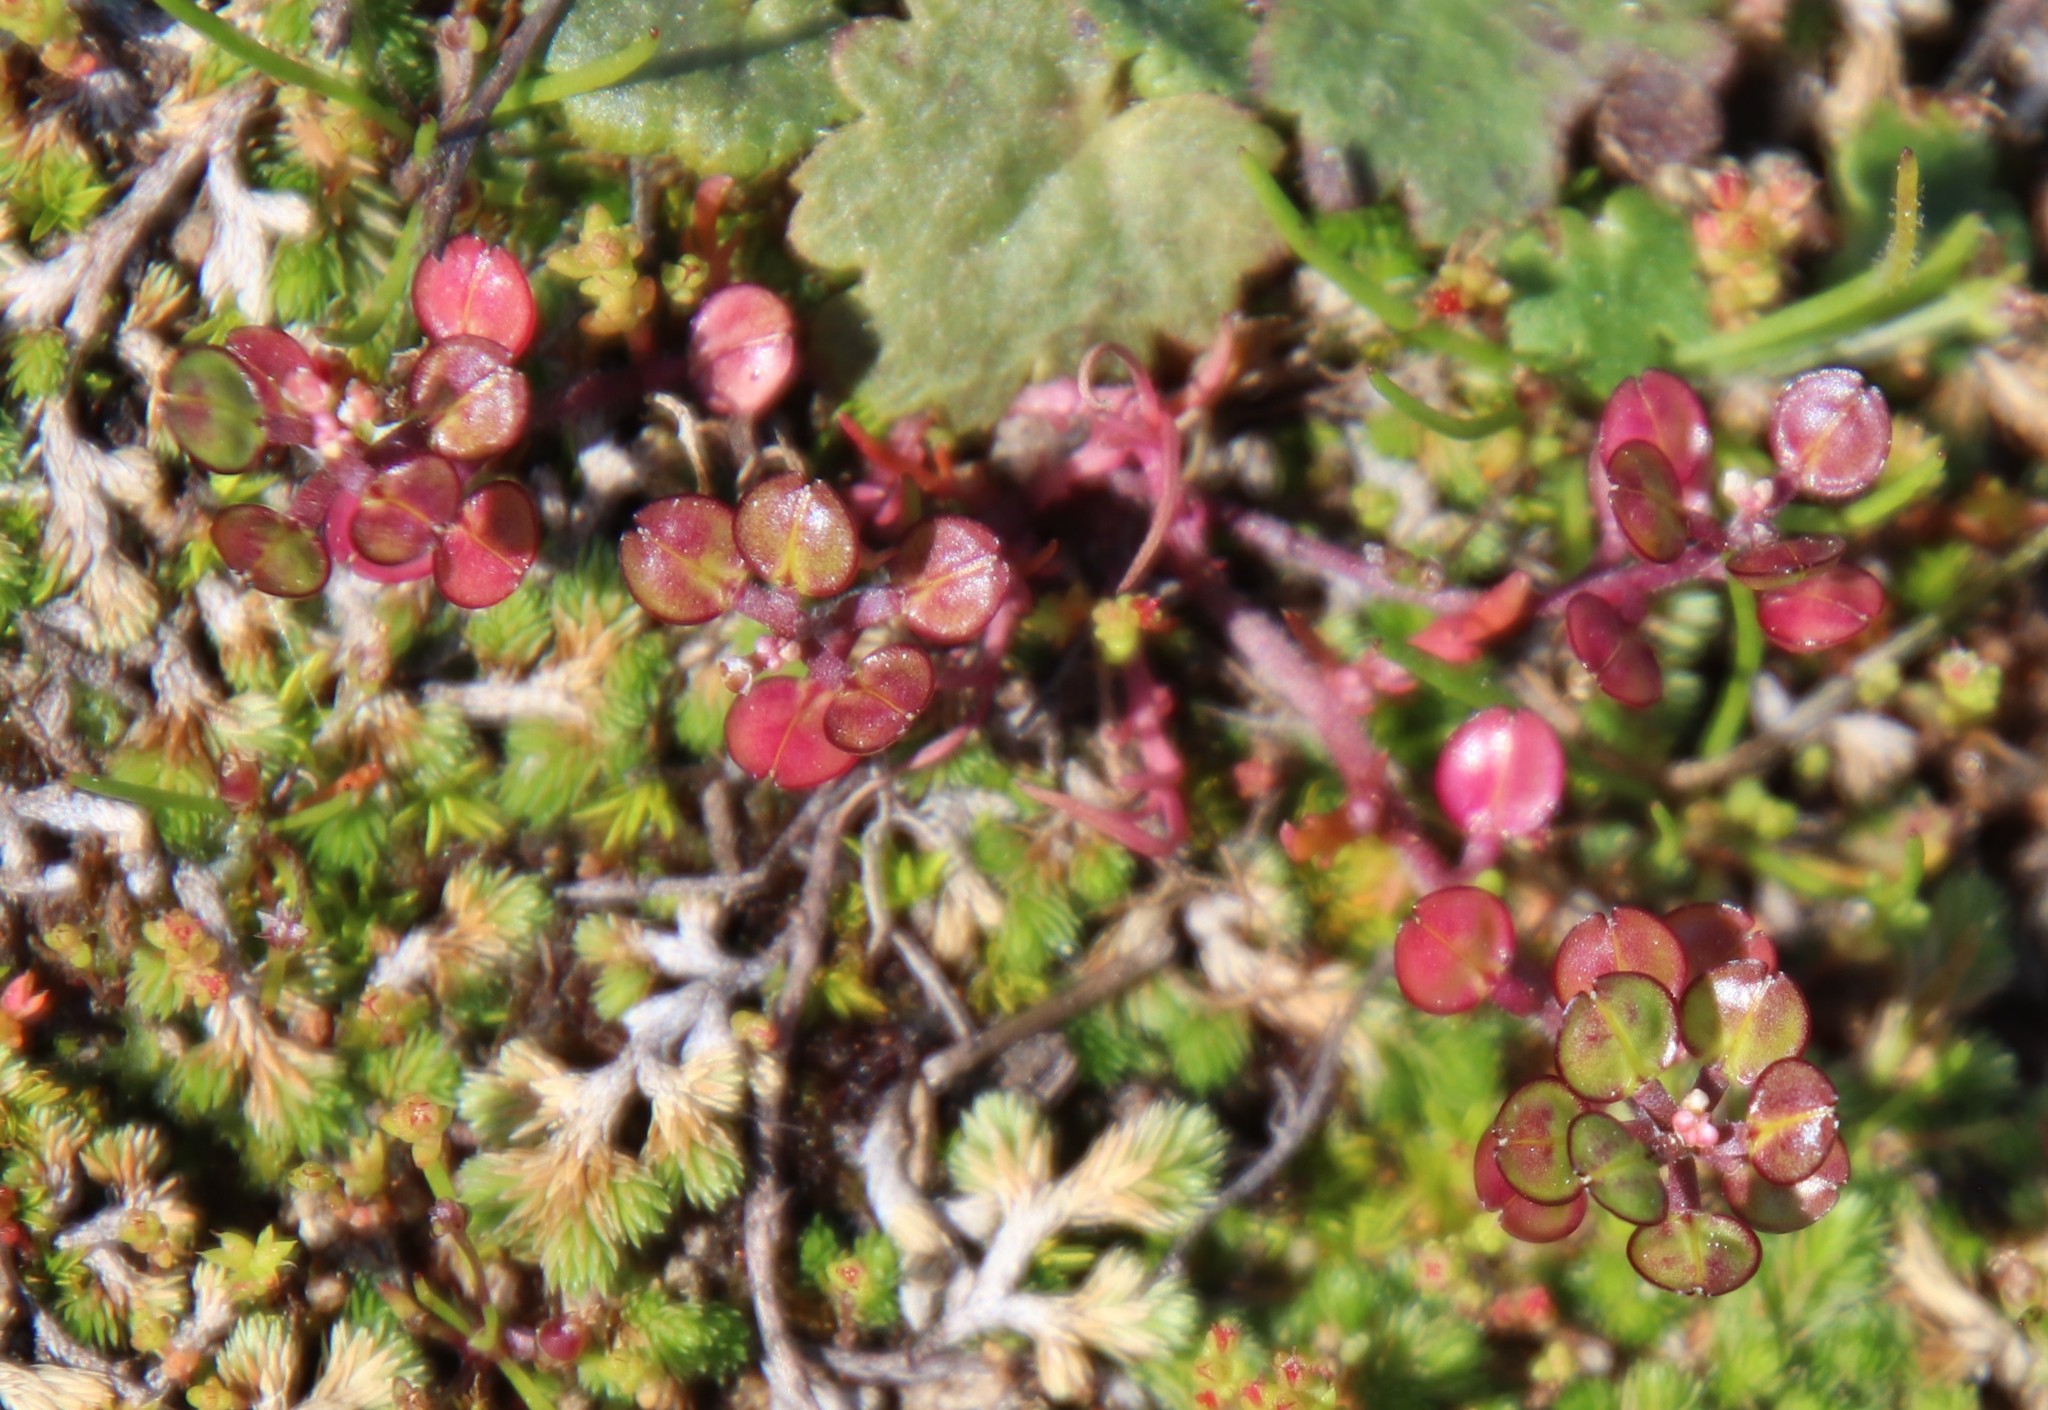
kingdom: Plantae
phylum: Tracheophyta
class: Magnoliopsida
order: Brassicales
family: Brassicaceae
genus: Lepidium
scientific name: Lepidium nitidum
